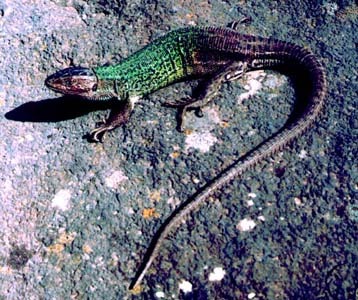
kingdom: Animalia
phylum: Chordata
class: Squamata
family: Lacertidae
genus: Lacerta
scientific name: Lacerta strigata
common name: Caspian green lizard
